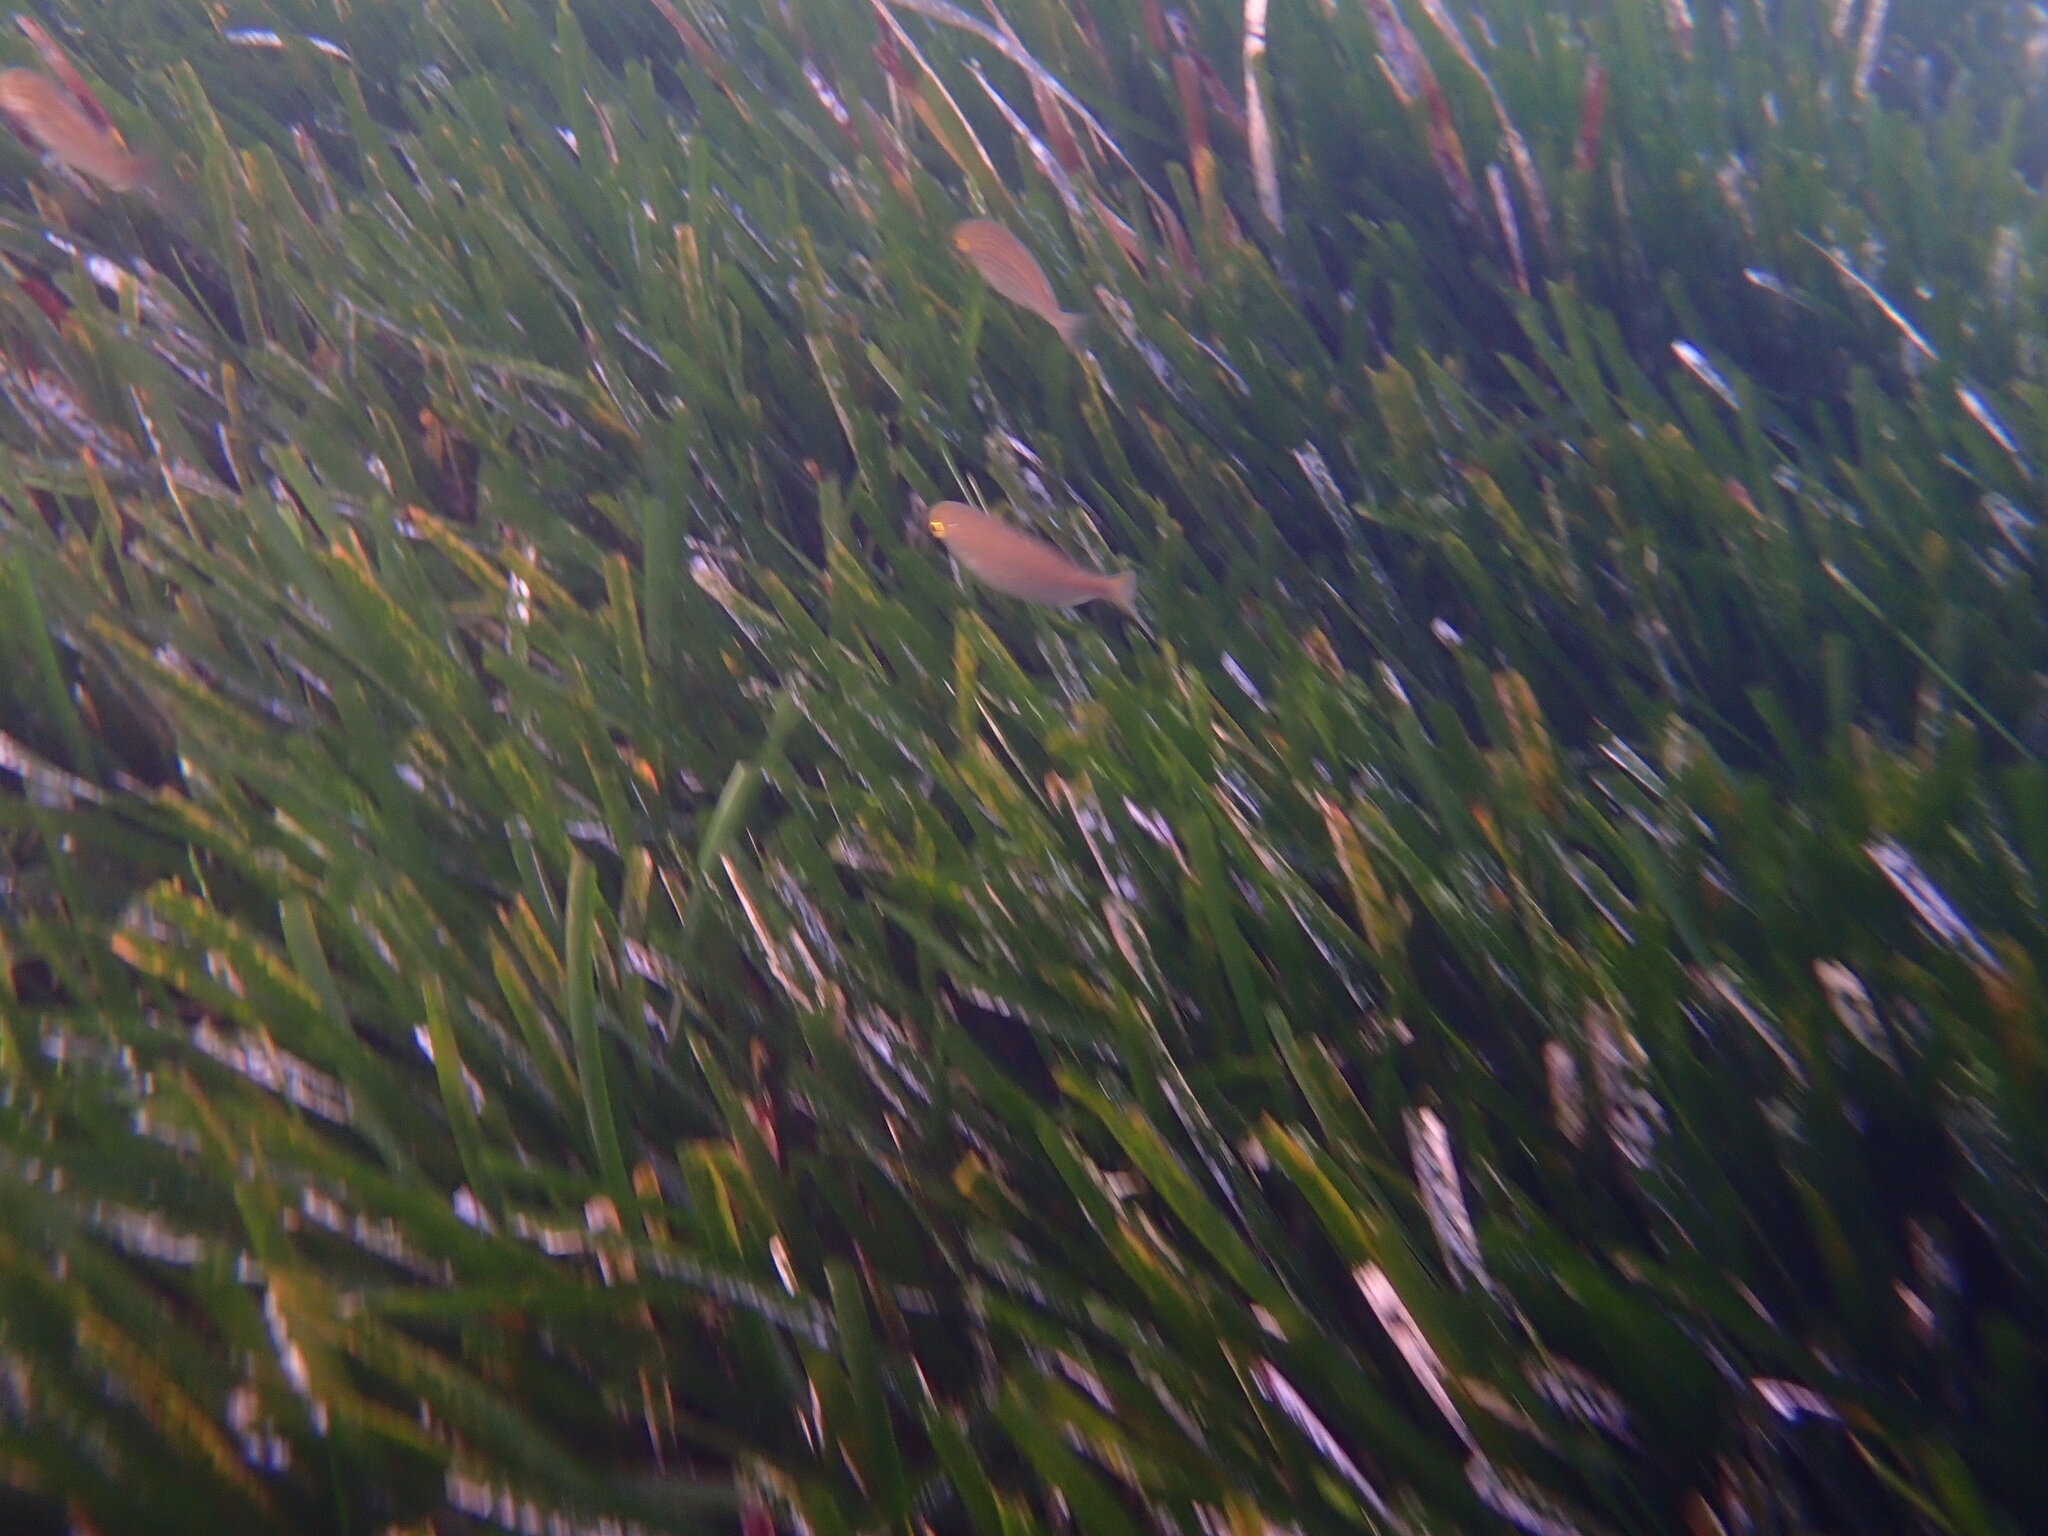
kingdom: Animalia
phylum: Chordata
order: Perciformes
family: Sparidae
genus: Sarpa
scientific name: Sarpa salpa
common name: Salema
